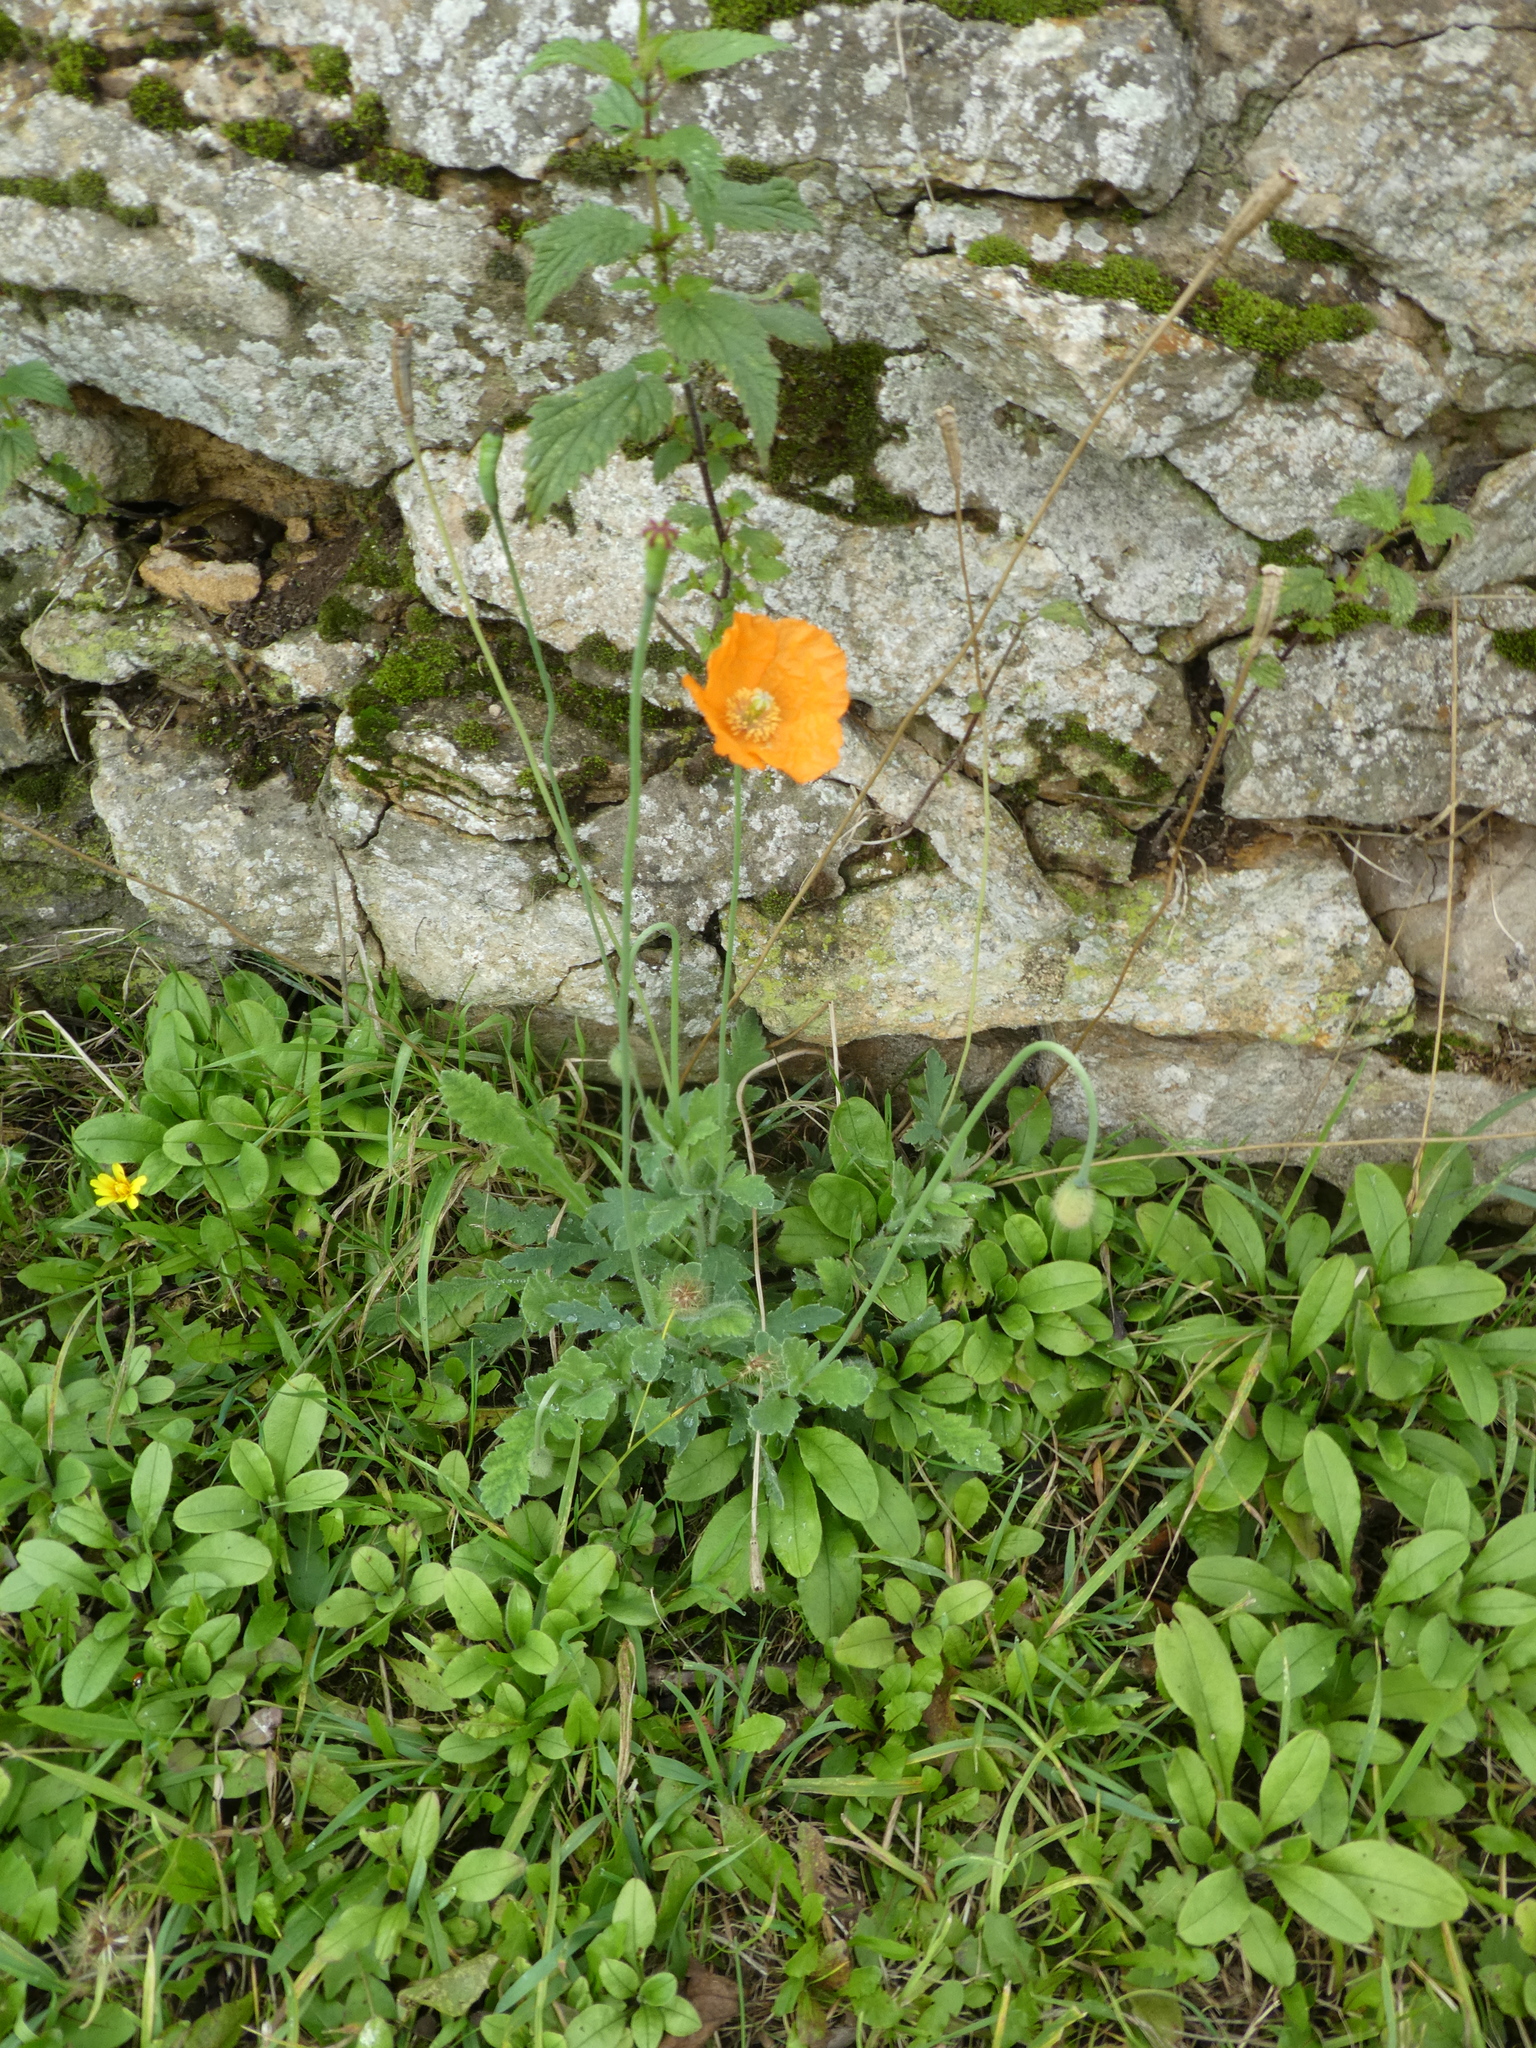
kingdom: Plantae
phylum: Tracheophyta
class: Magnoliopsida
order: Ranunculales
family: Papaveraceae
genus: Papaver
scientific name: Papaver atlanticum
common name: Atlas poppy
